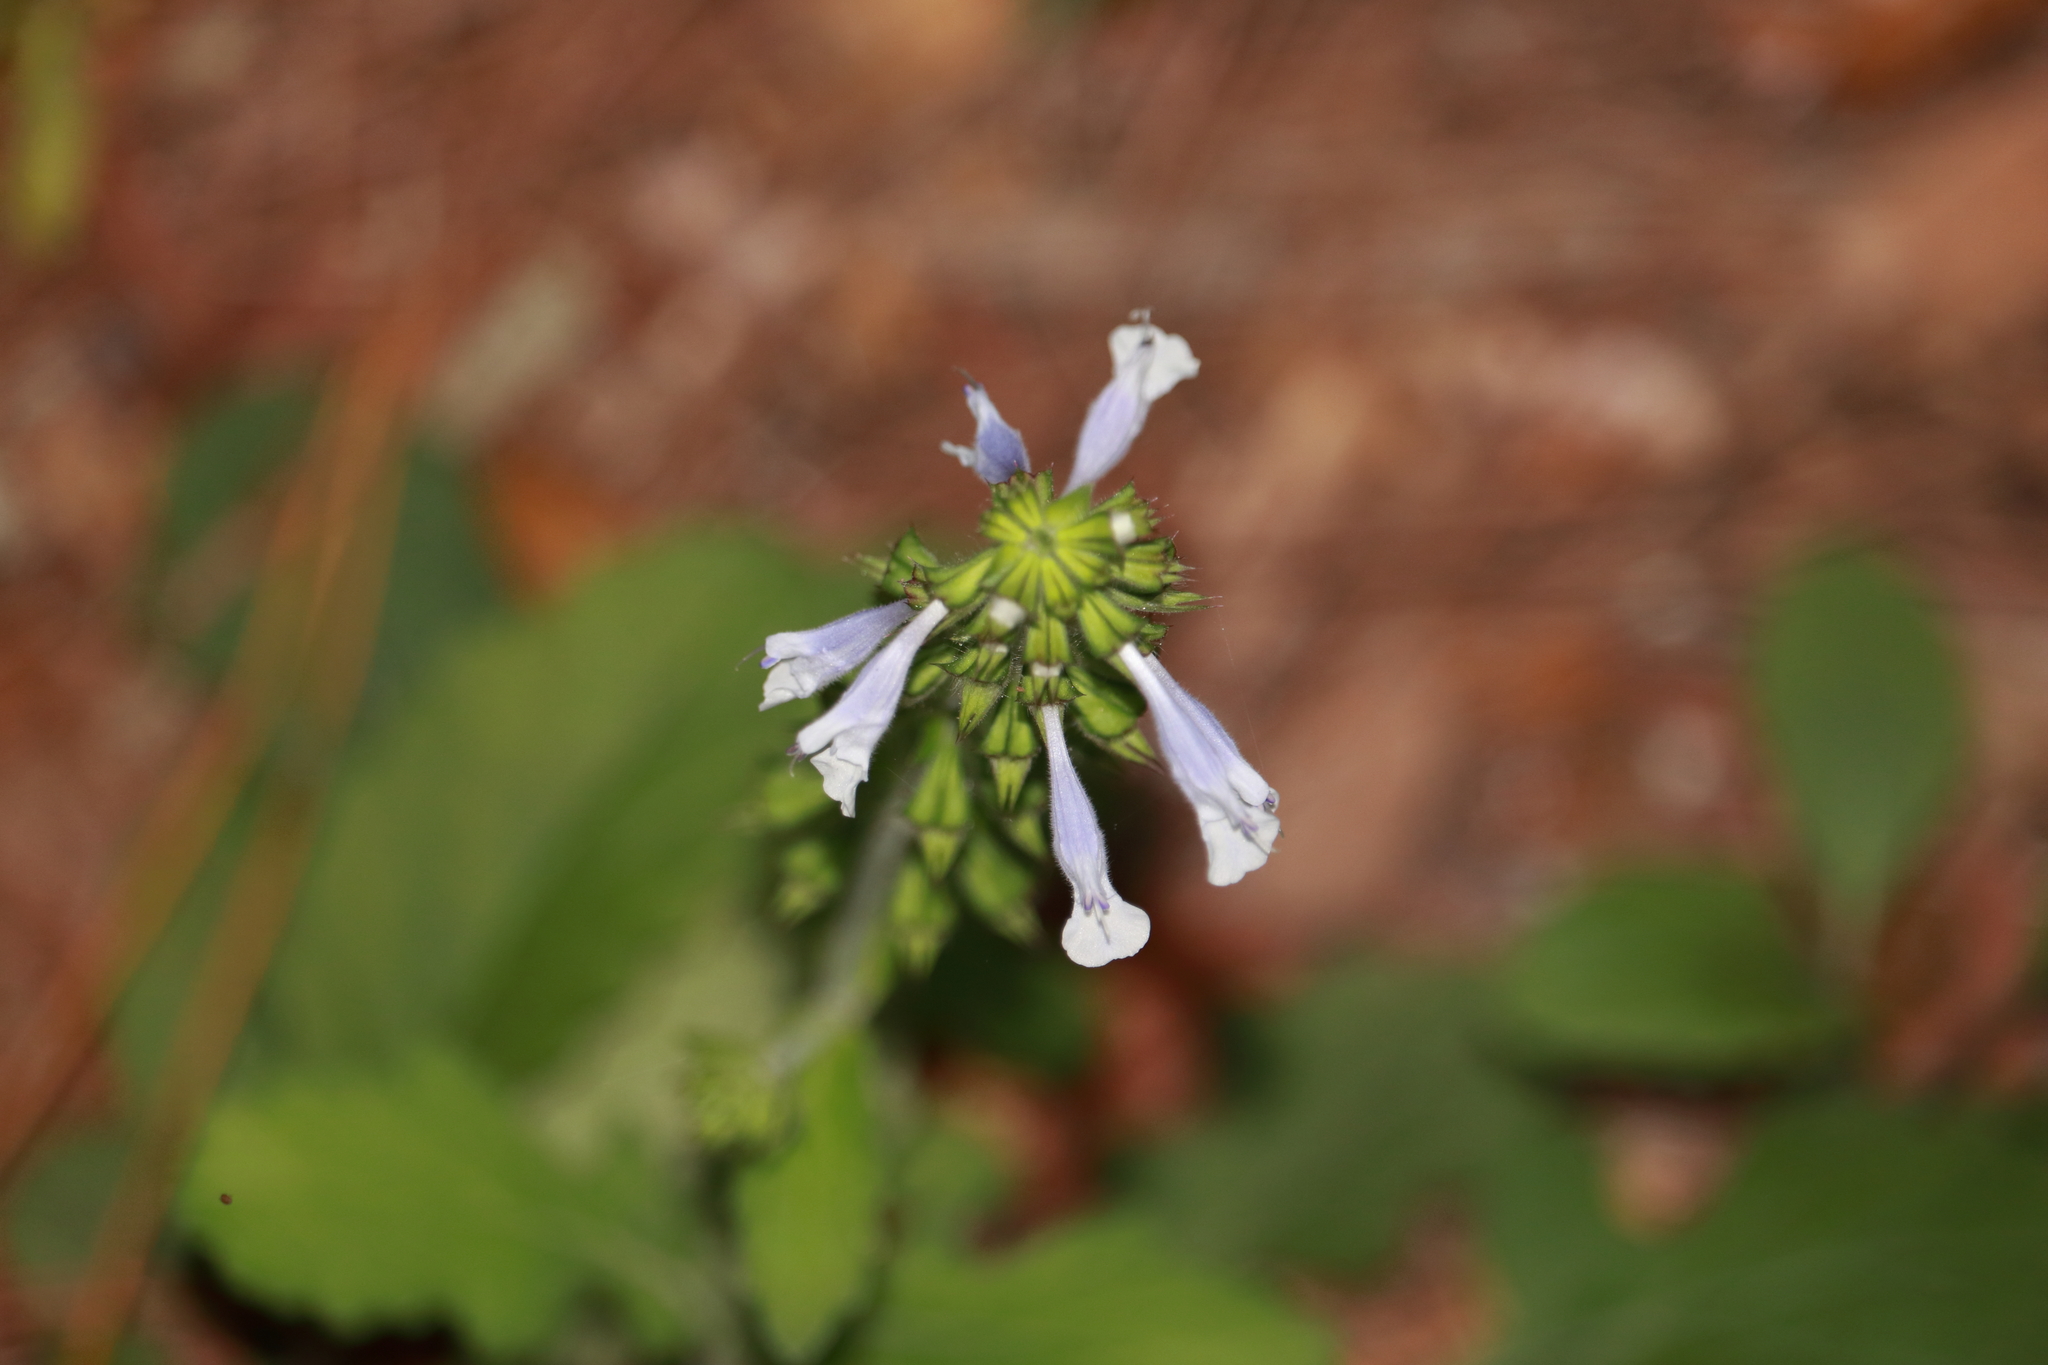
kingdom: Plantae
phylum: Tracheophyta
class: Magnoliopsida
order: Lamiales
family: Lamiaceae
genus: Salvia
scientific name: Salvia lyrata
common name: Cancerweed
